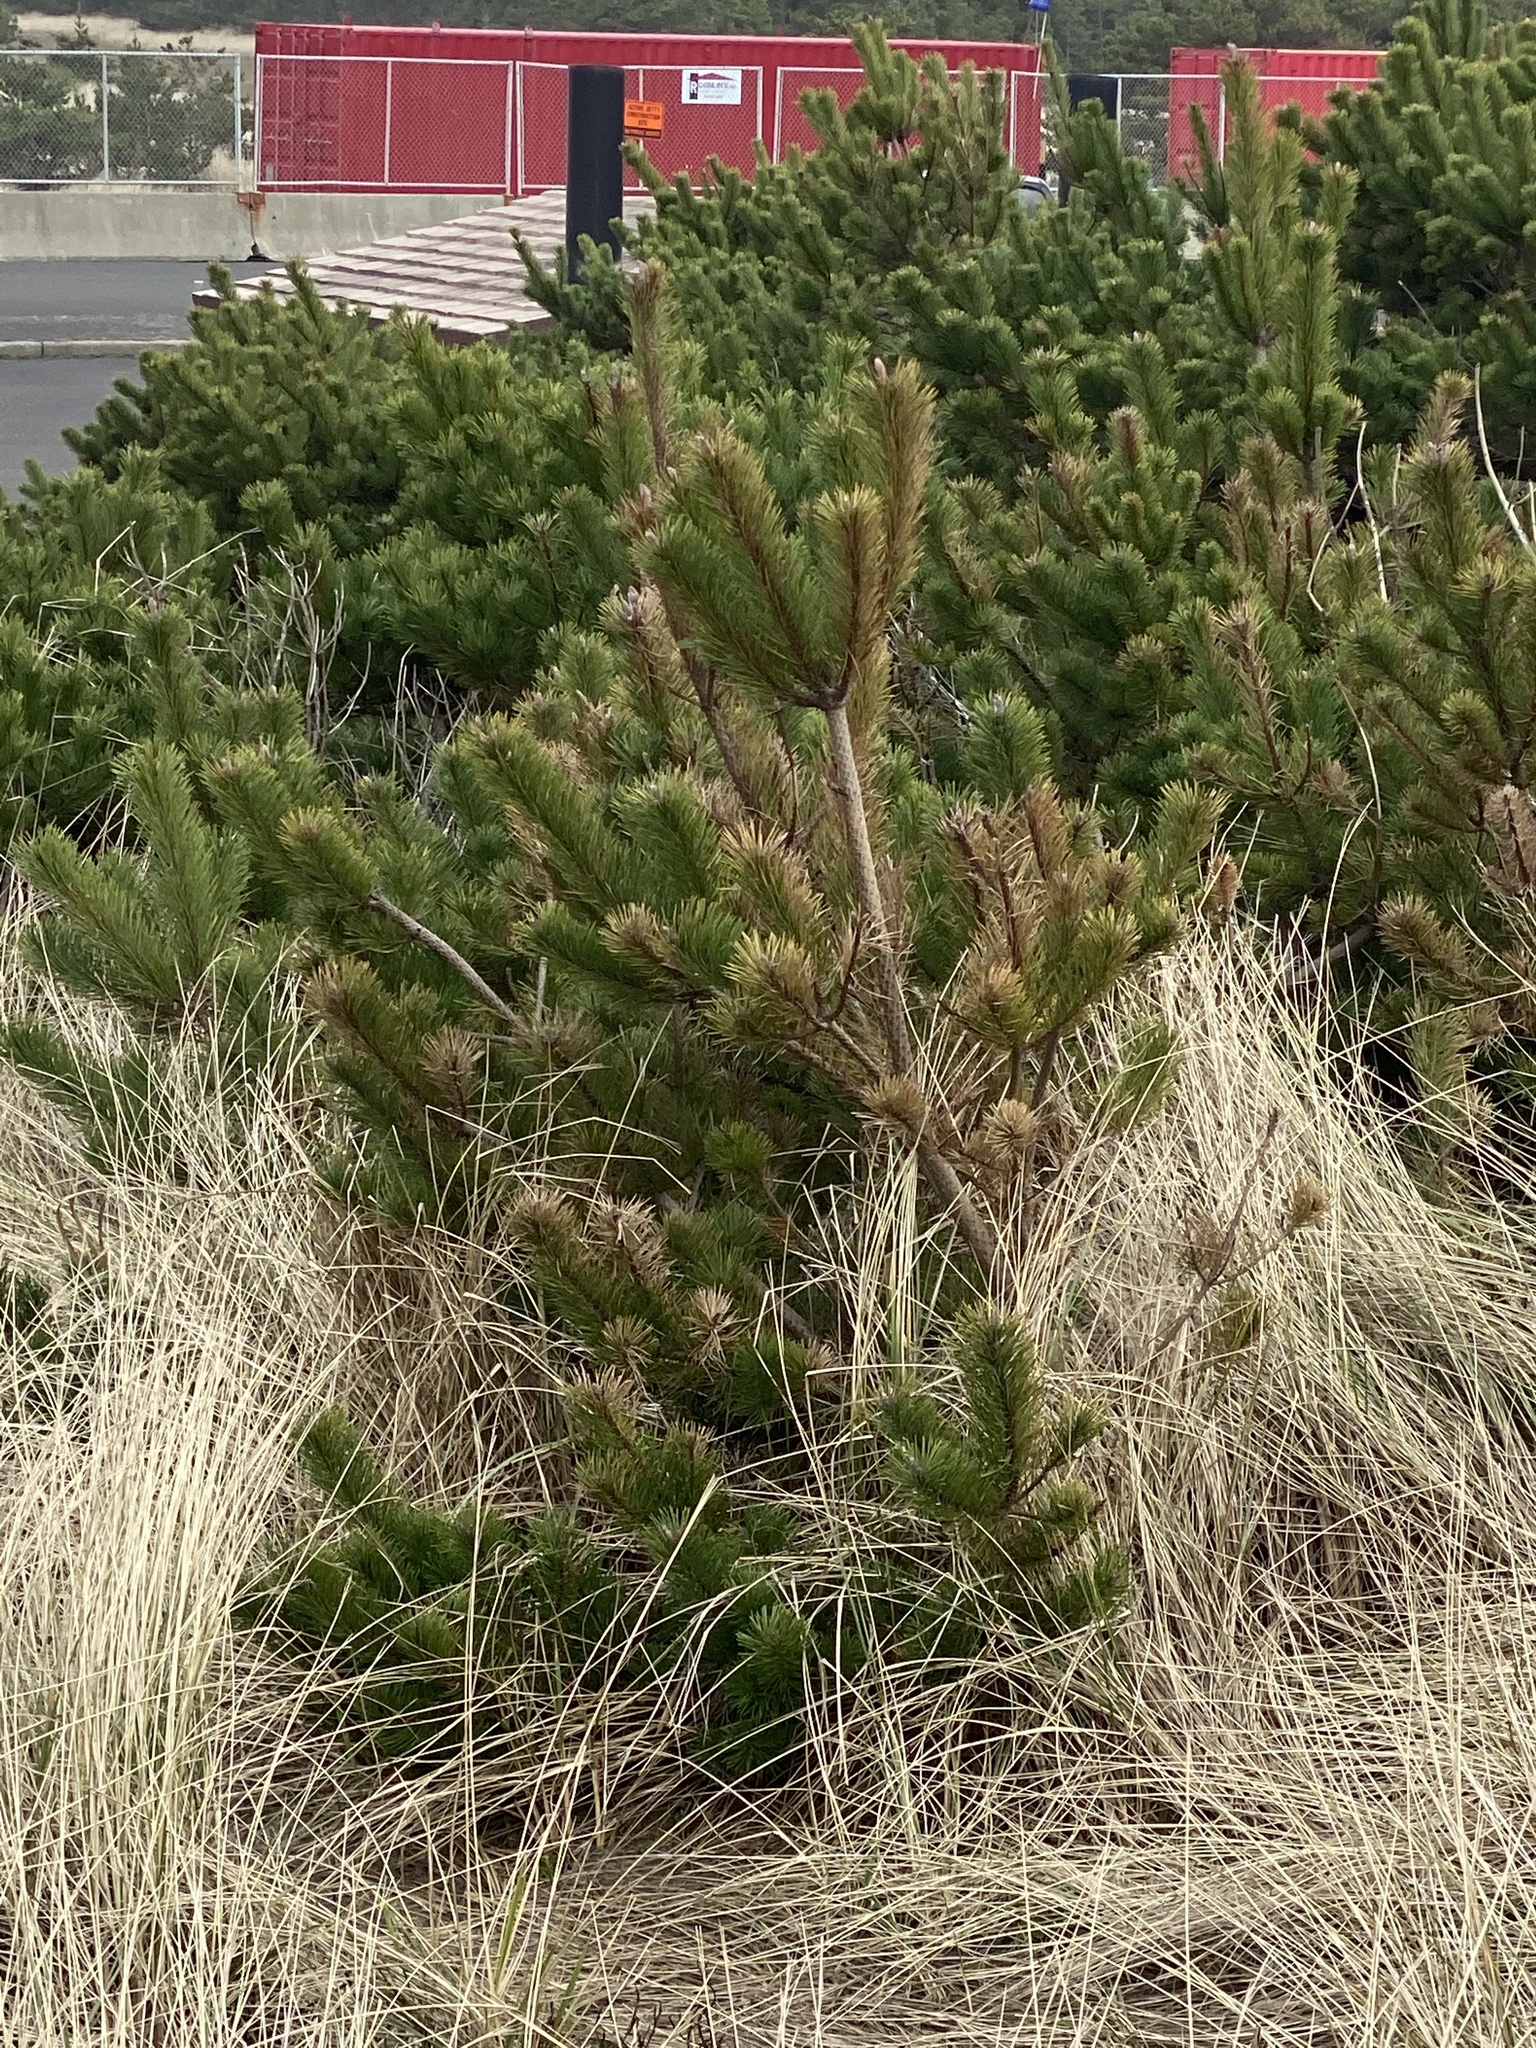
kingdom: Plantae
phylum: Tracheophyta
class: Pinopsida
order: Pinales
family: Pinaceae
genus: Pinus
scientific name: Pinus contorta
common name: Lodgepole pine
